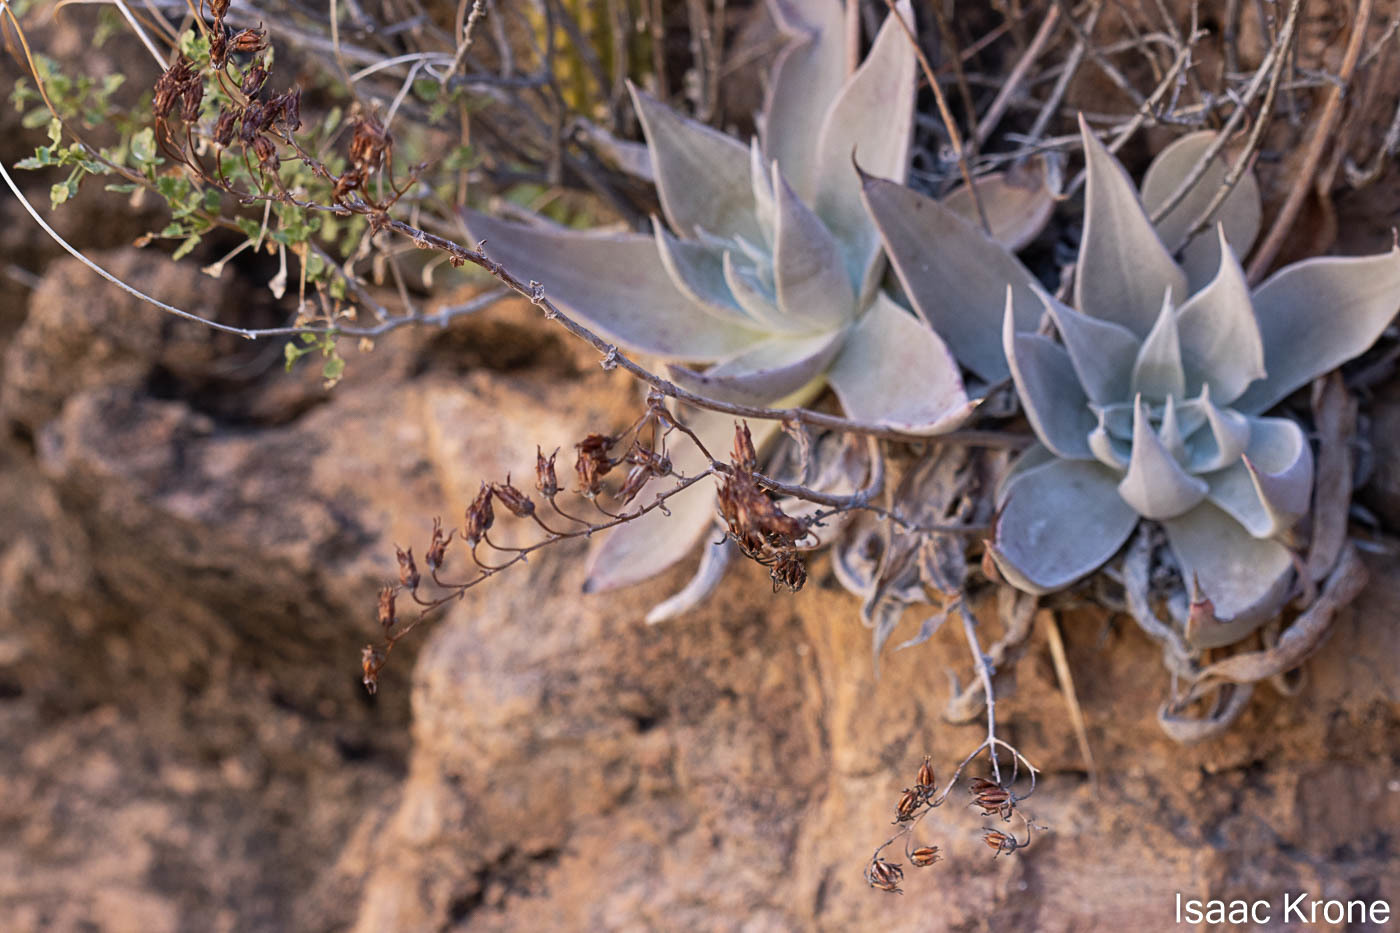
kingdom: Plantae
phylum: Tracheophyta
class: Magnoliopsida
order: Saxifragales
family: Crassulaceae
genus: Dudleya
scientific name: Dudleya arizonica
